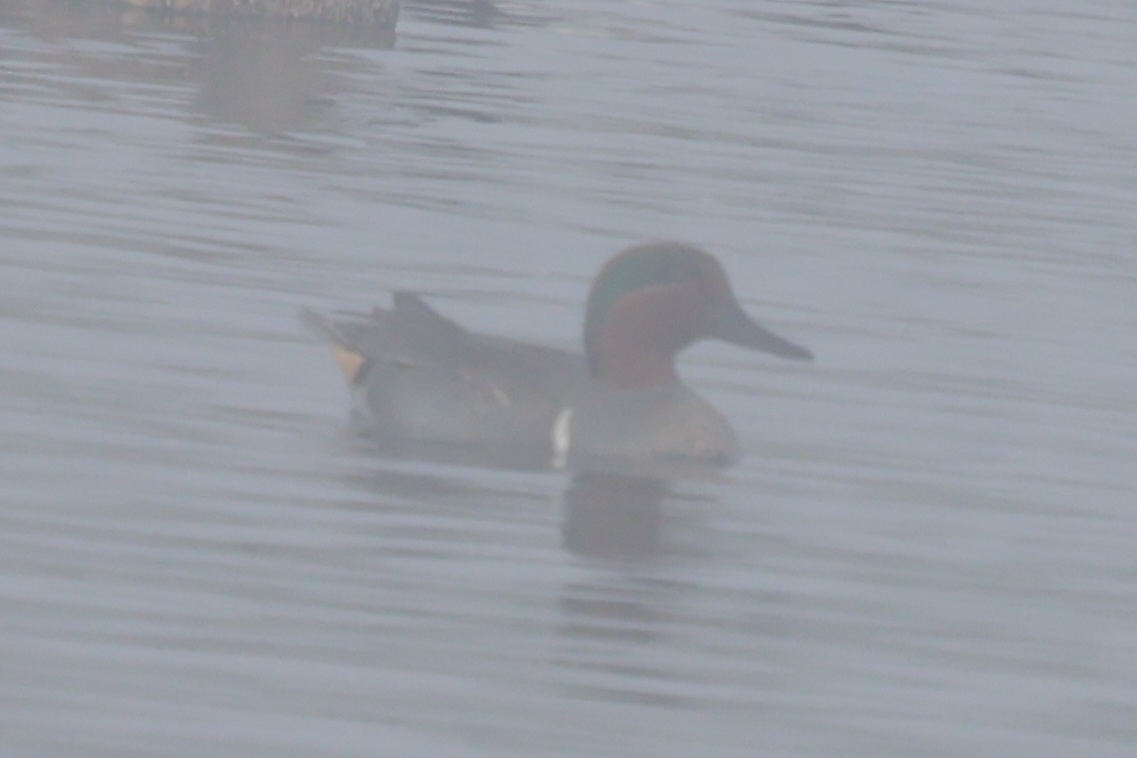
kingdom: Animalia
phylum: Chordata
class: Aves
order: Anseriformes
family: Anatidae
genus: Anas
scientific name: Anas crecca
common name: Eurasian teal
